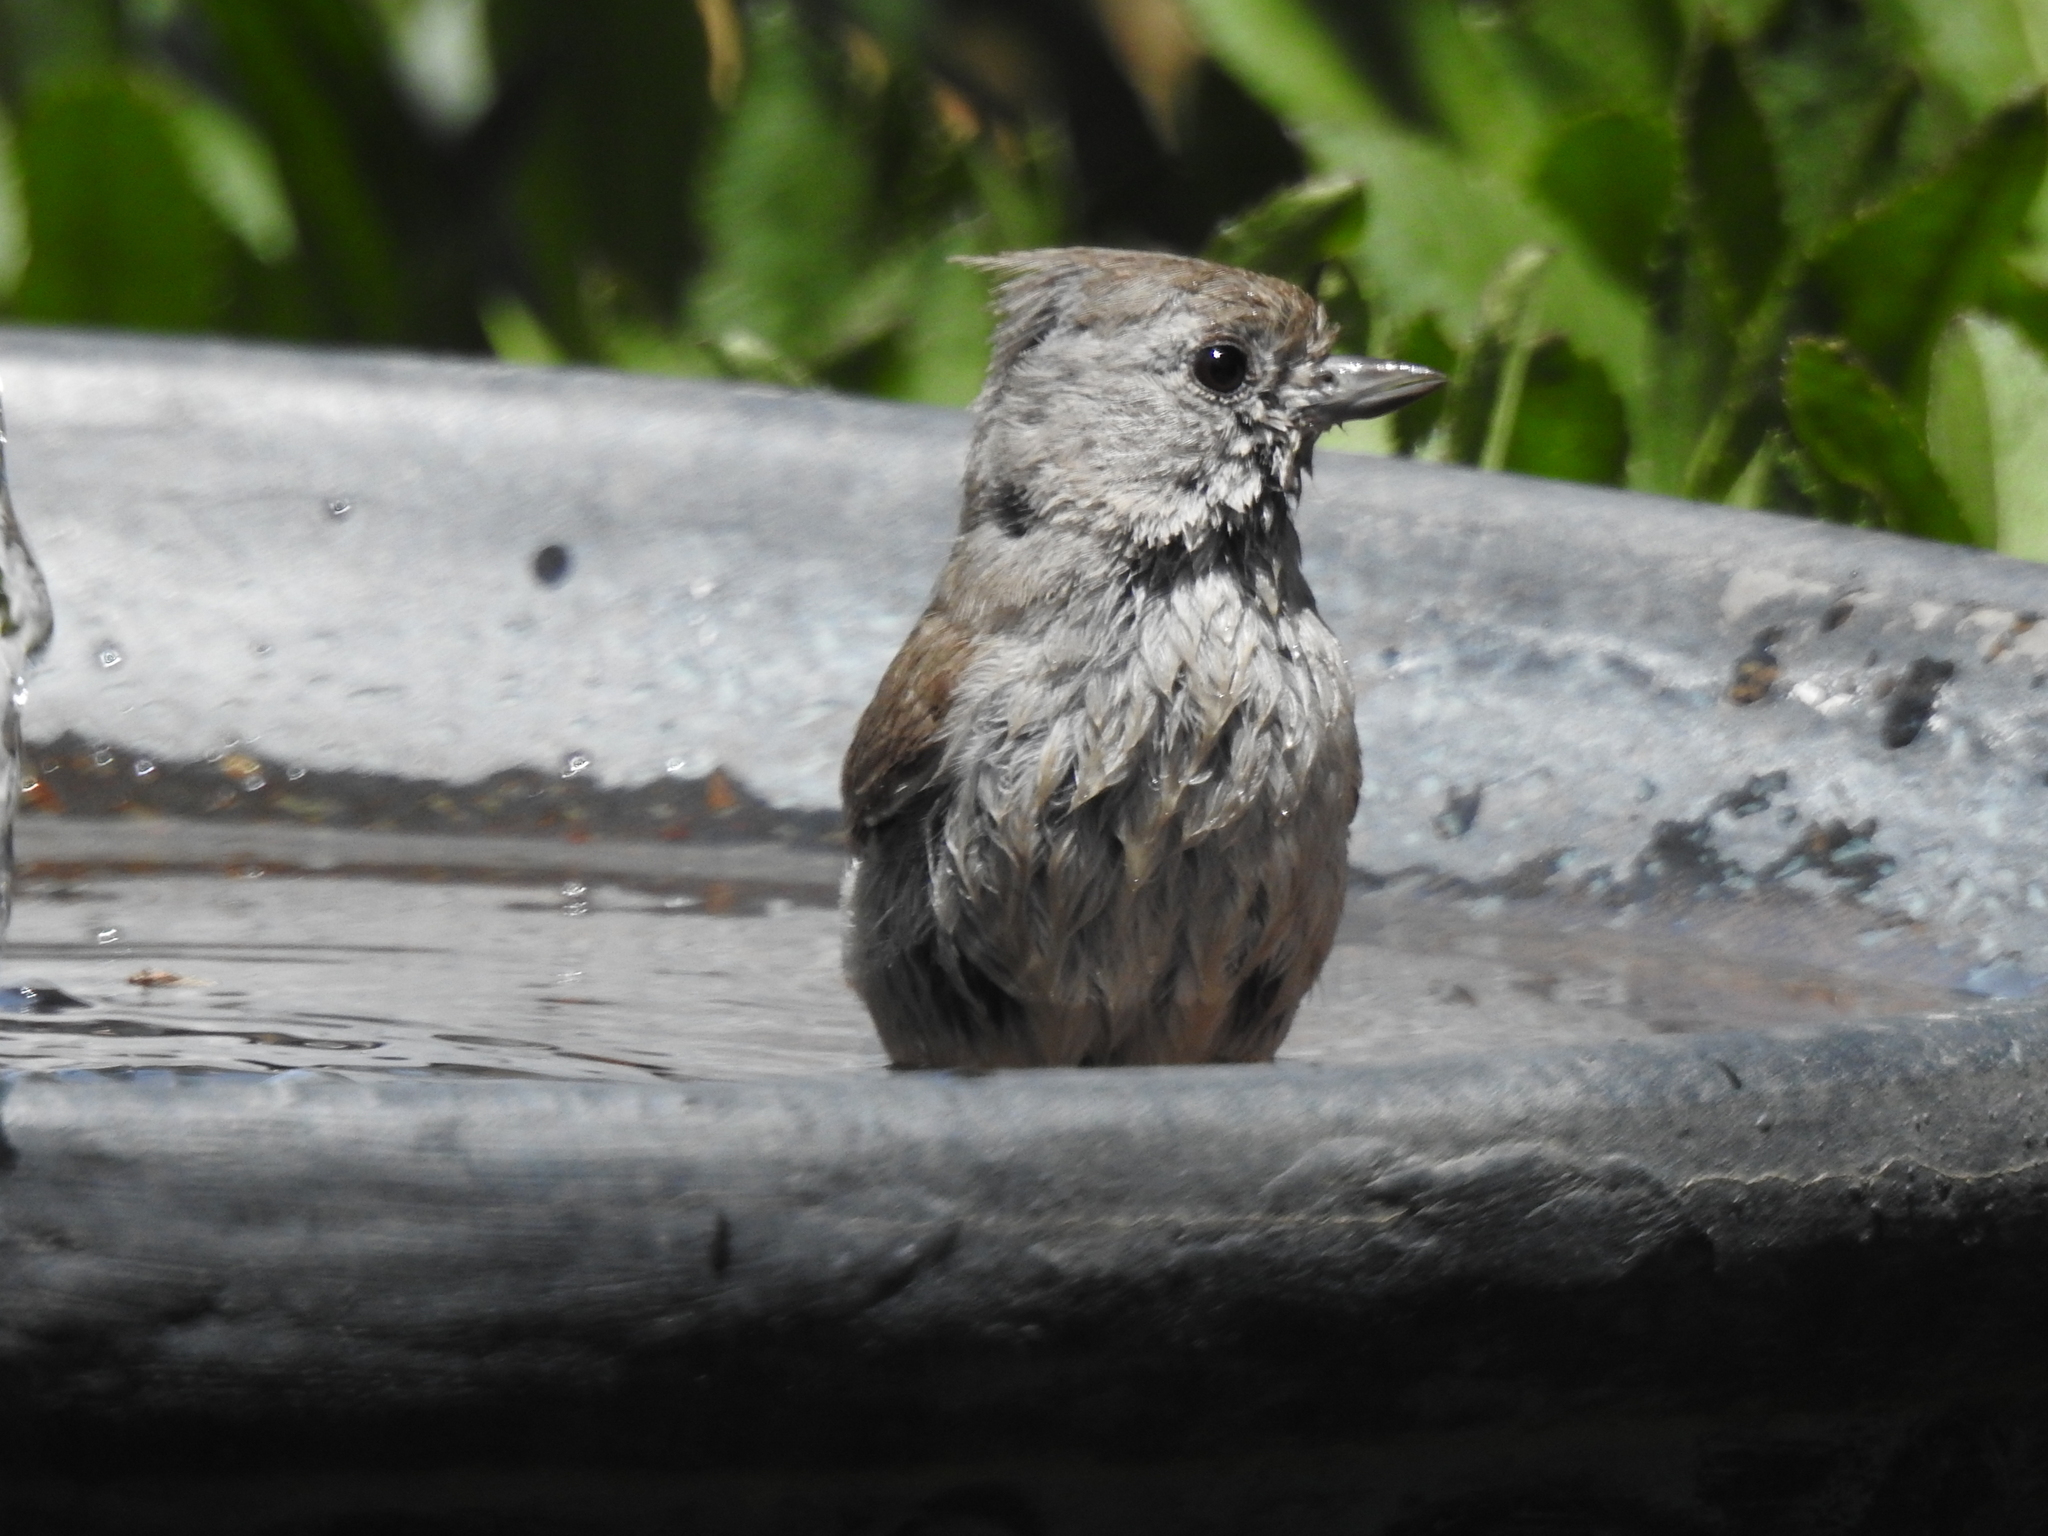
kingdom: Animalia
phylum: Chordata
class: Aves
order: Passeriformes
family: Paridae
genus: Baeolophus
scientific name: Baeolophus inornatus
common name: Oak titmouse
